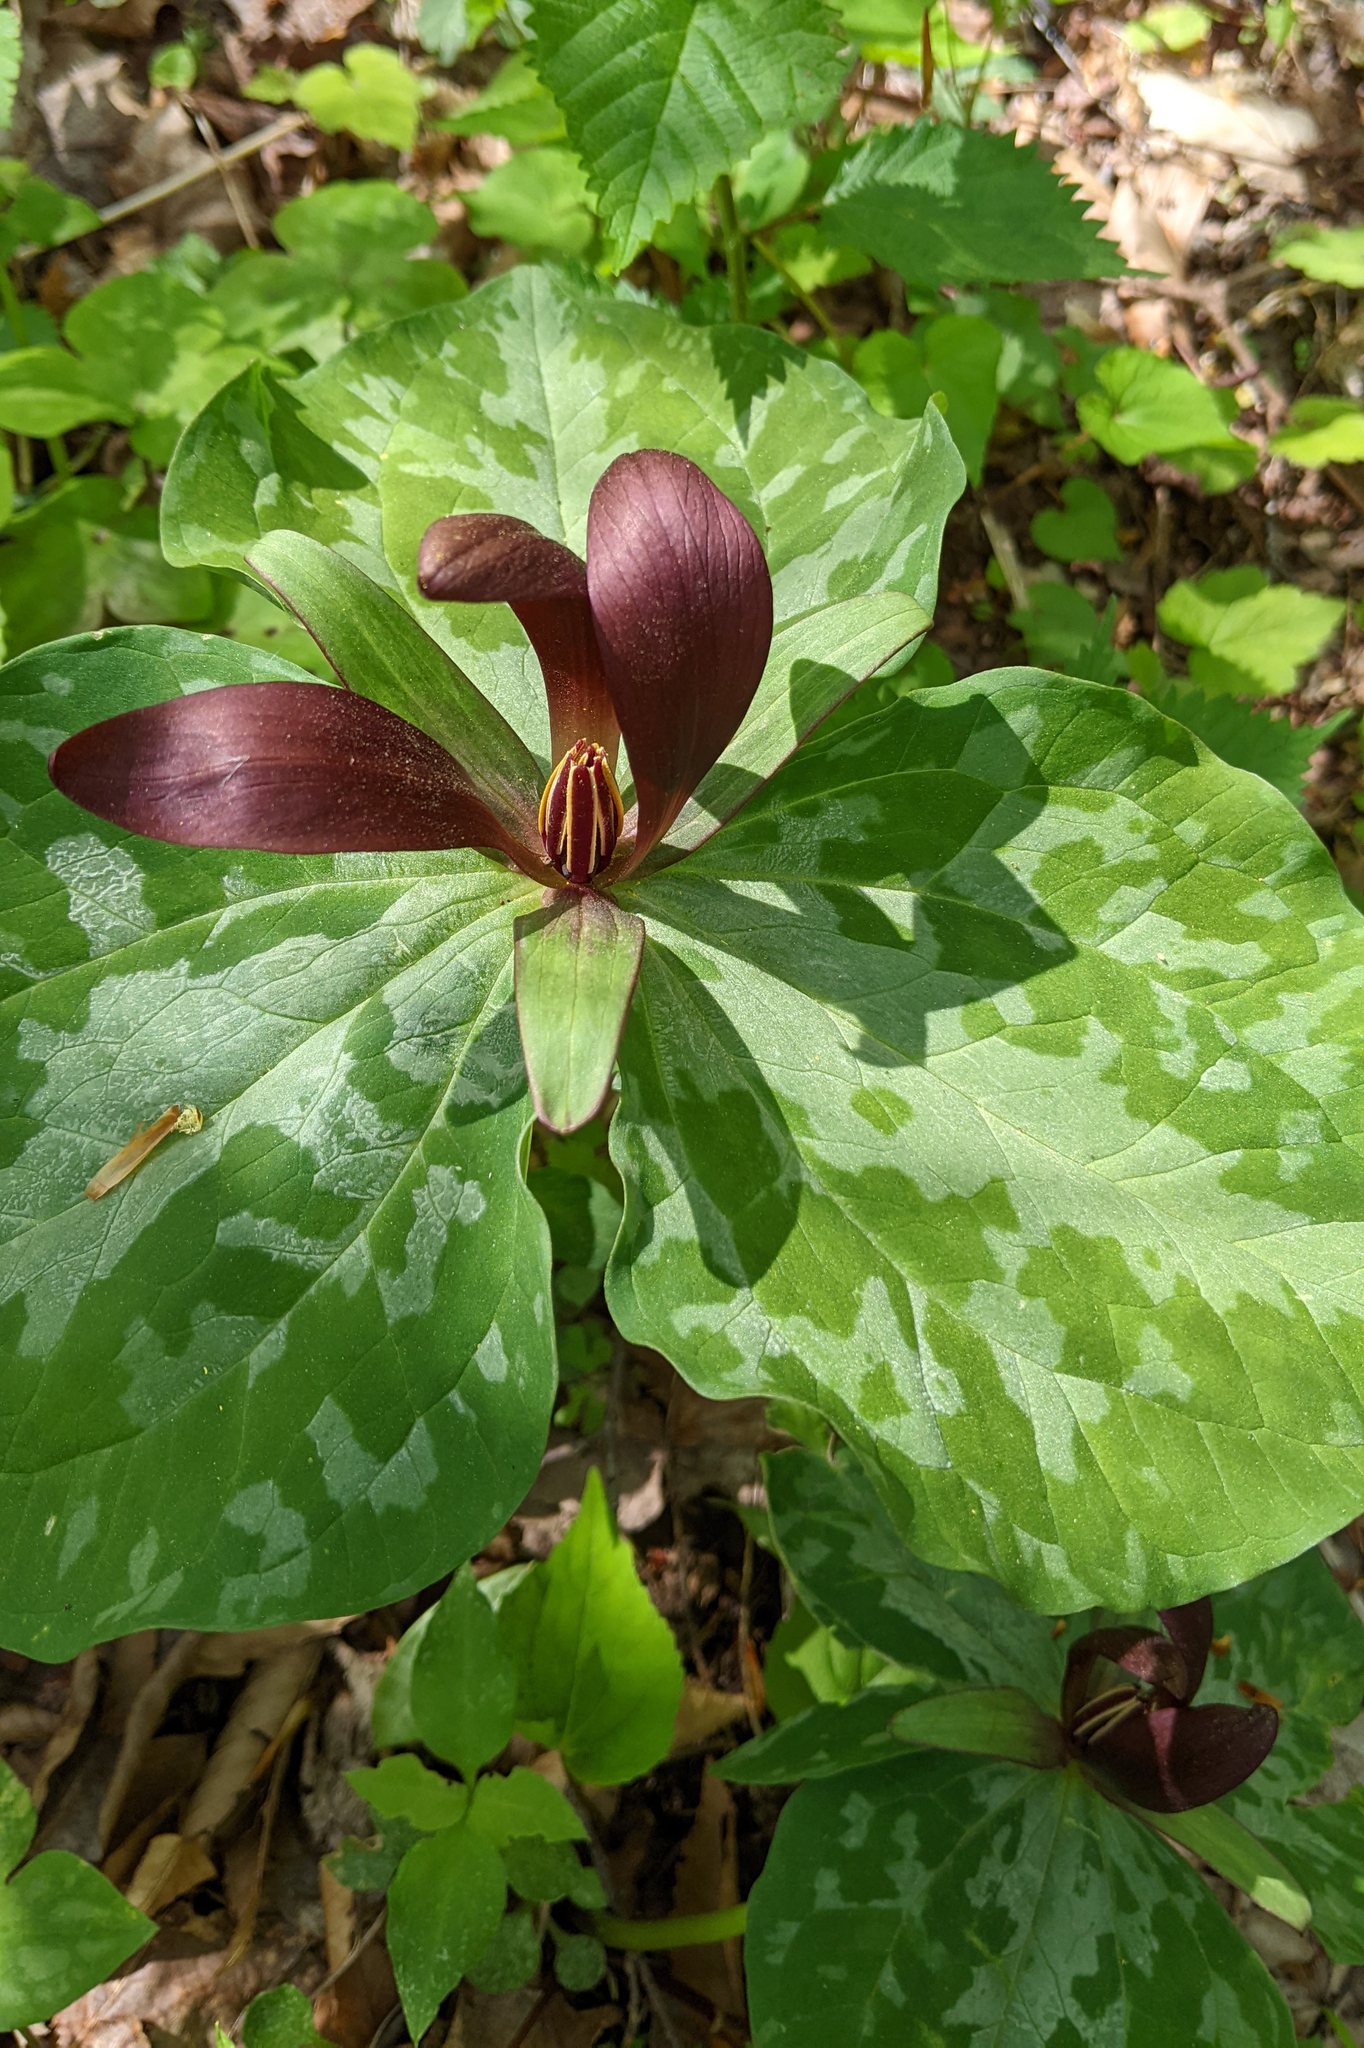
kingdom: Plantae
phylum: Tracheophyta
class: Liliopsida
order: Liliales
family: Melanthiaceae
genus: Trillium
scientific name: Trillium cuneatum
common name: Cuneate trillium
